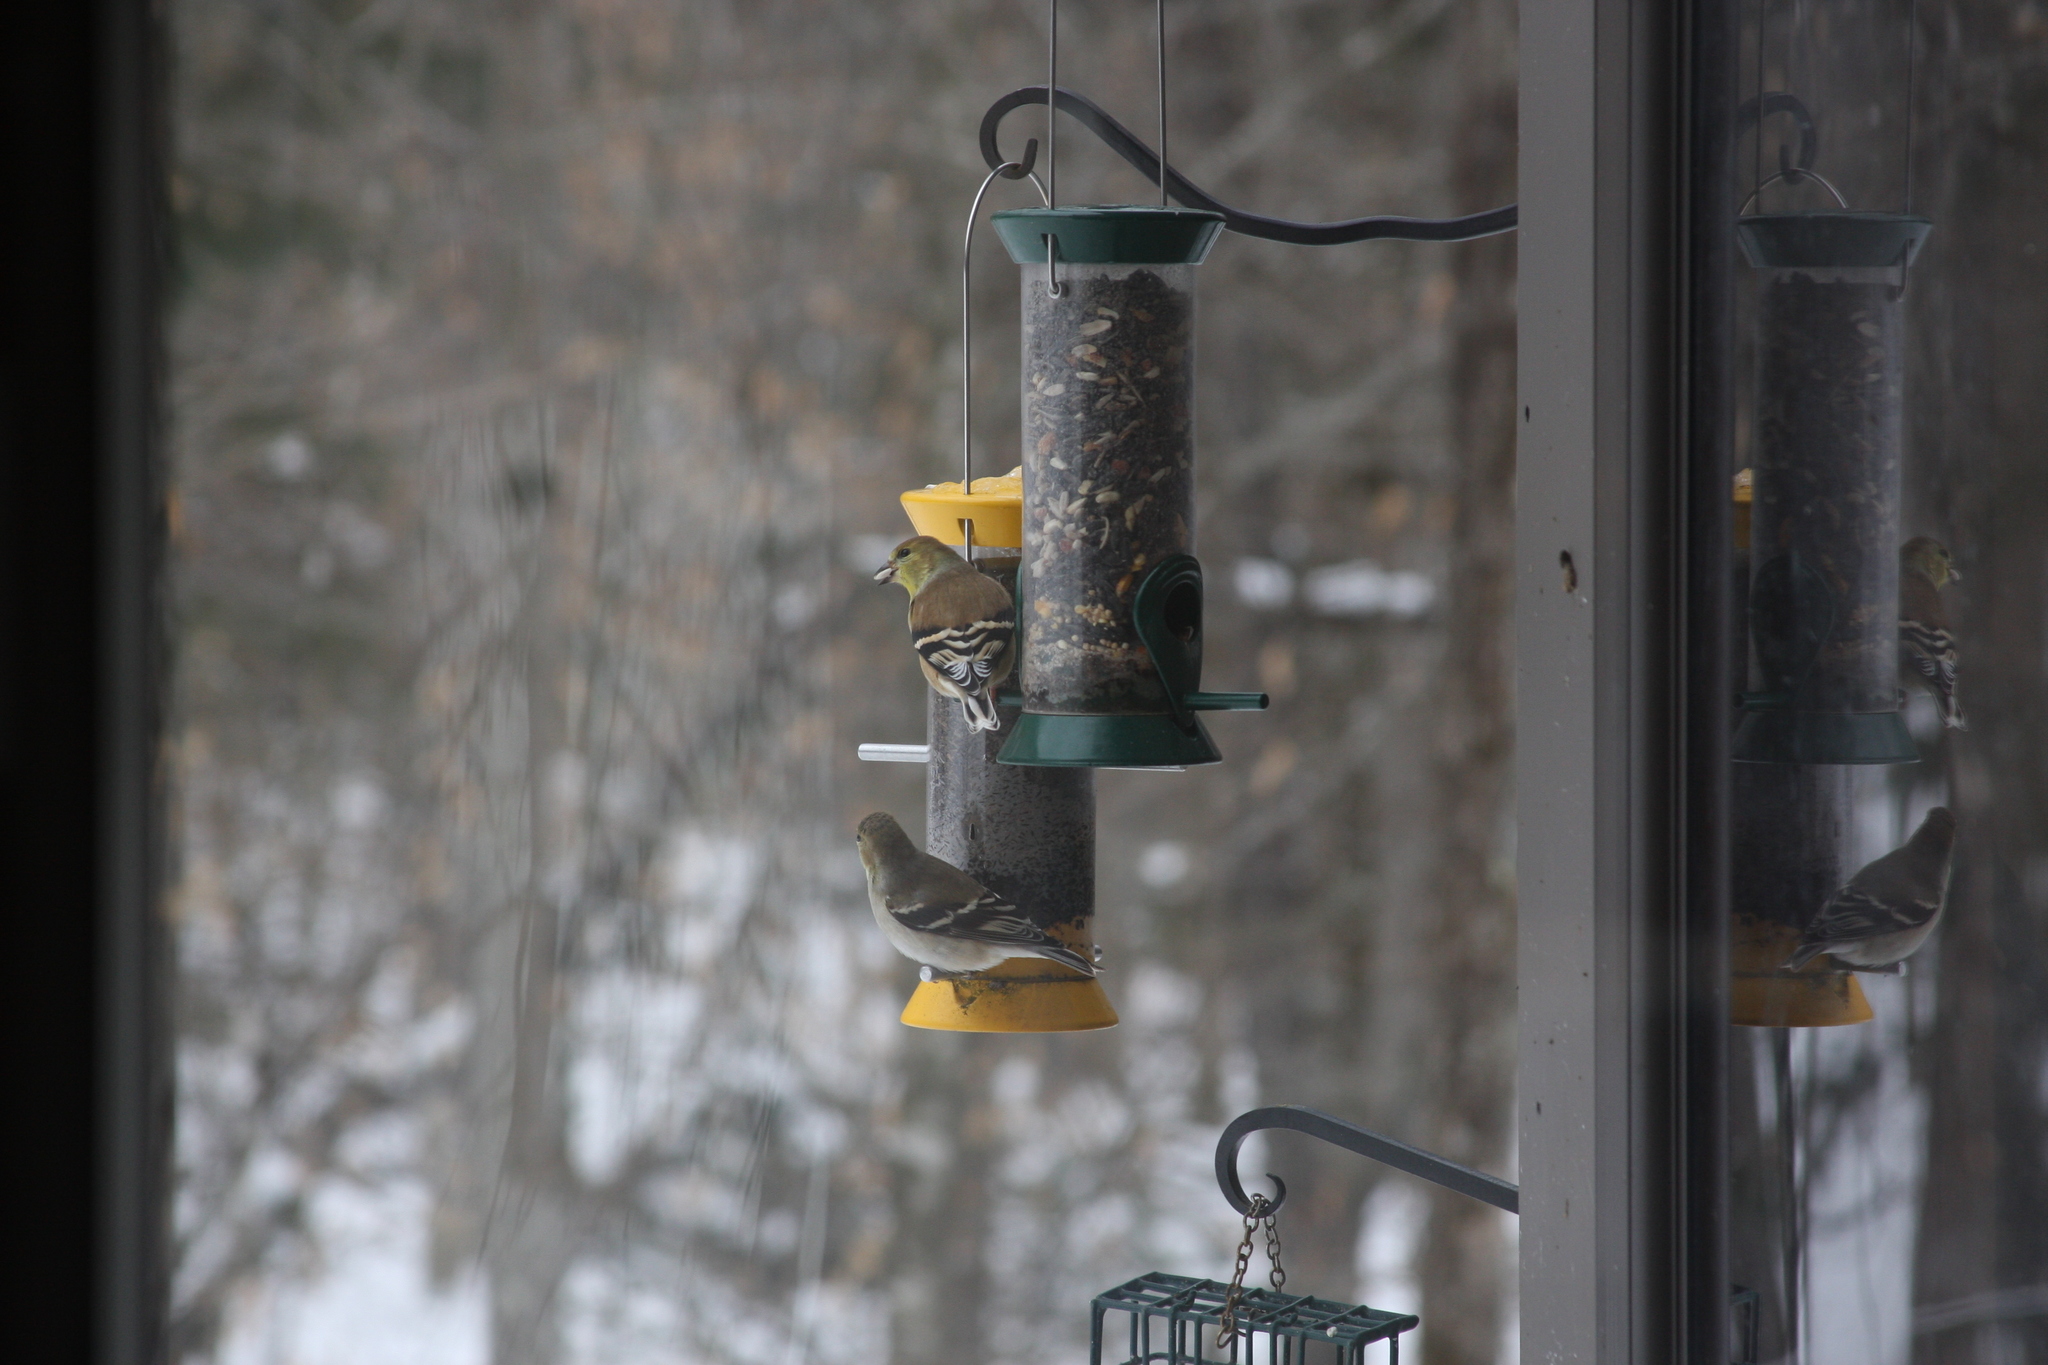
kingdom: Animalia
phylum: Chordata
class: Aves
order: Passeriformes
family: Fringillidae
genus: Spinus
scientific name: Spinus tristis
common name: American goldfinch
